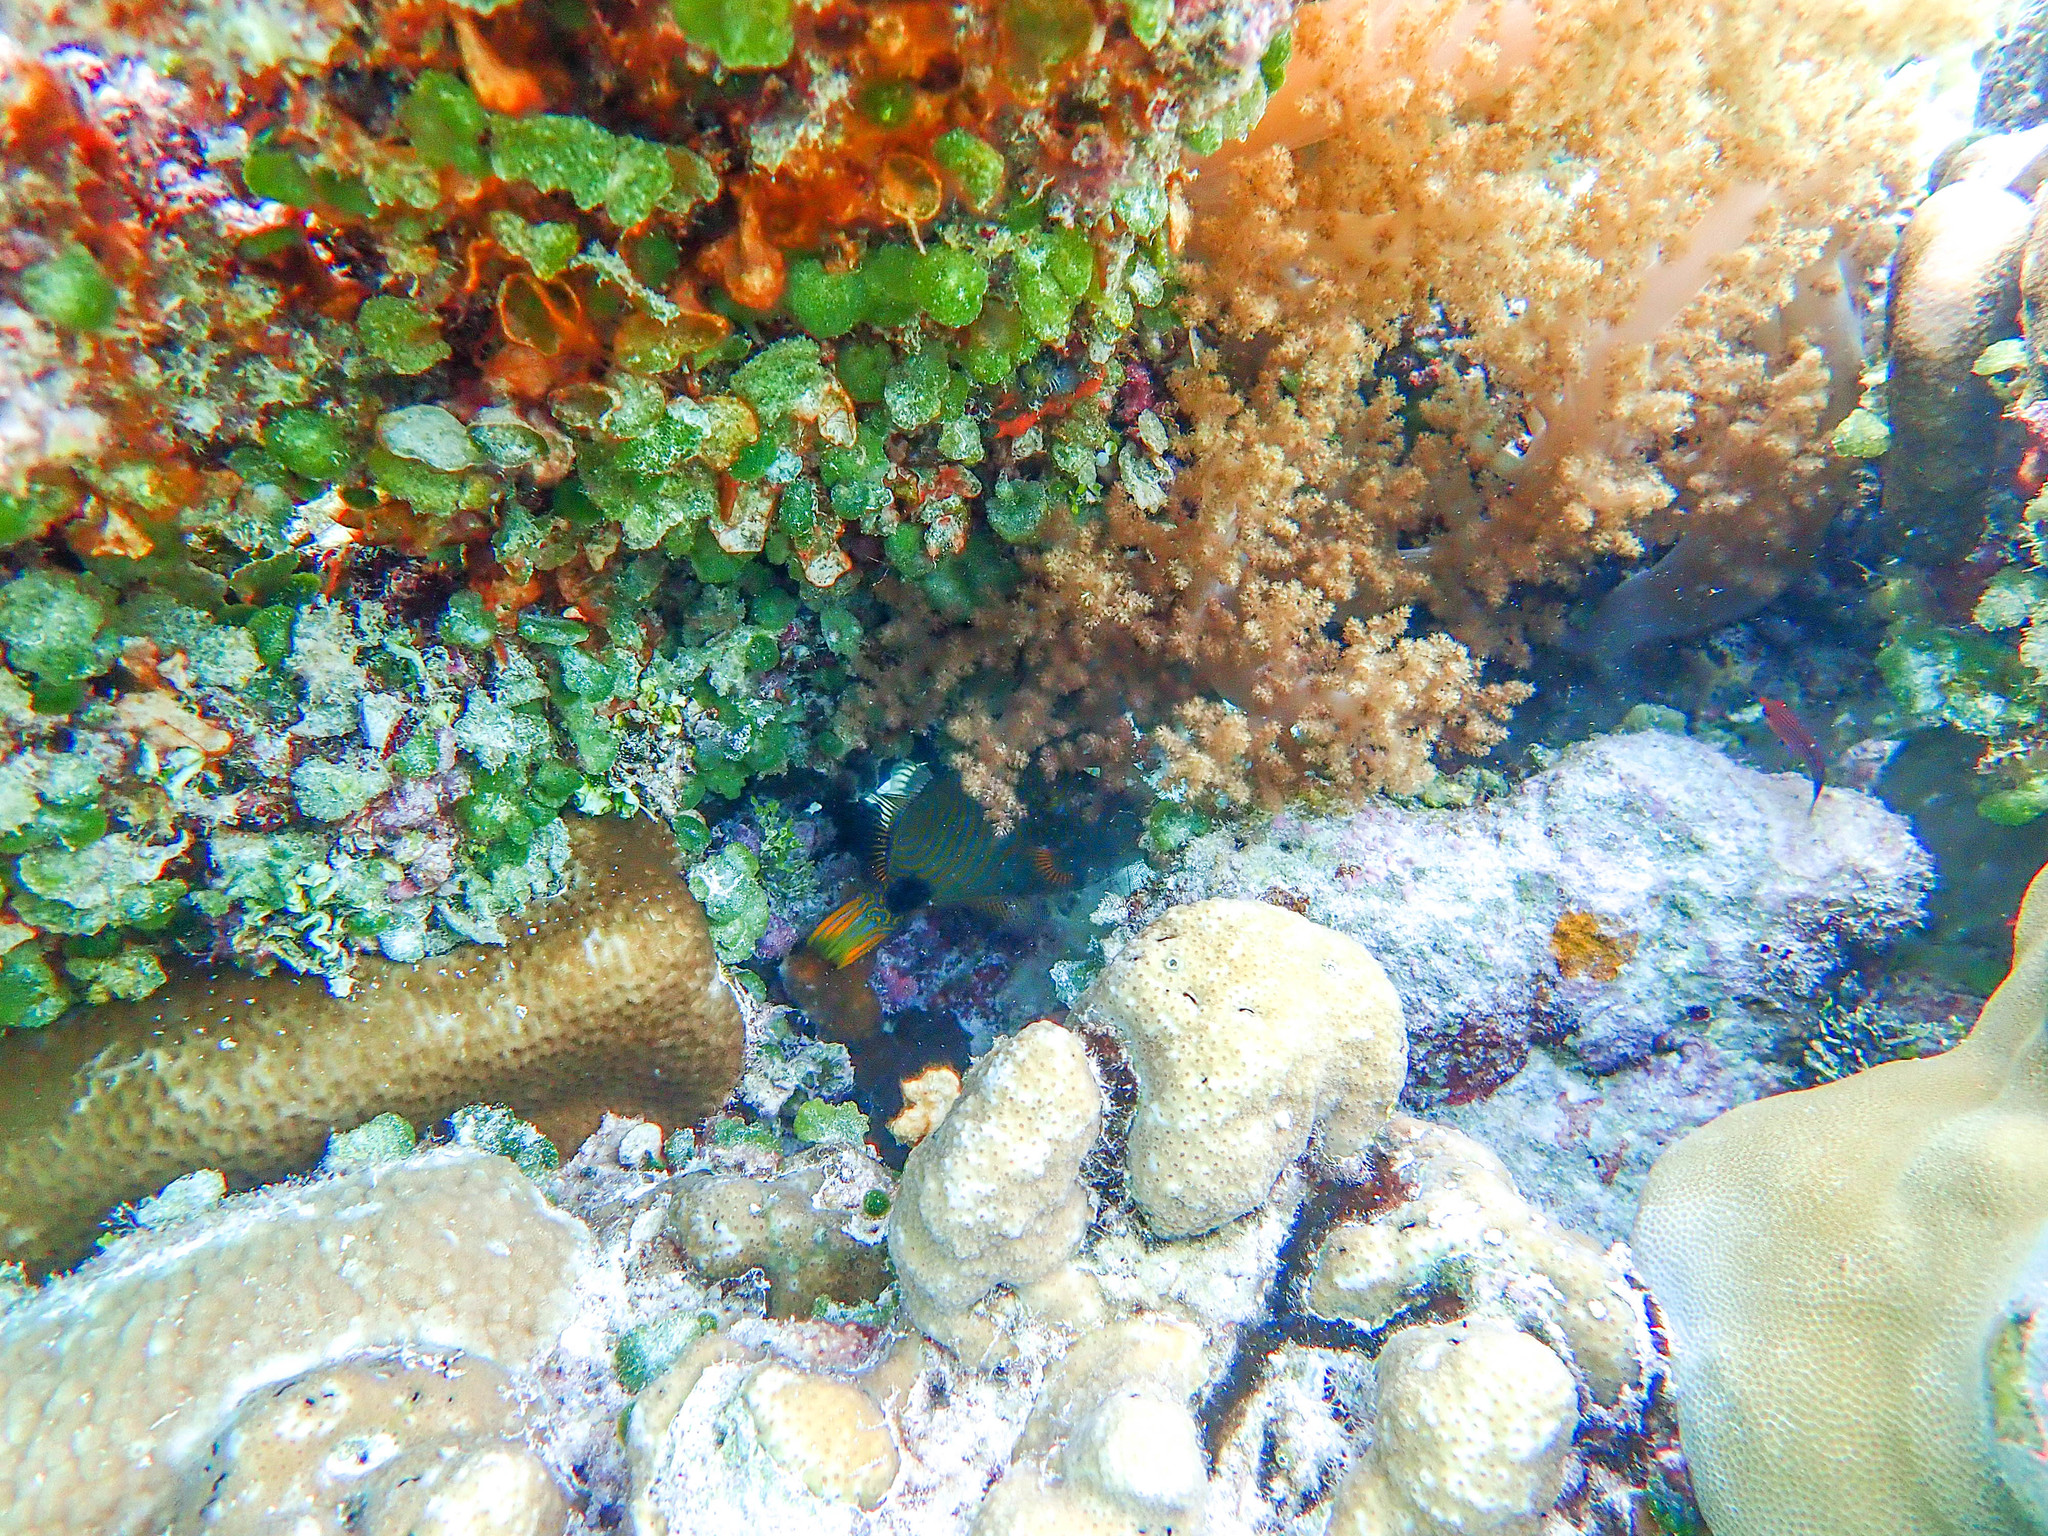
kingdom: Animalia
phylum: Chordata
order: Tetraodontiformes
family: Balistidae
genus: Balistapus
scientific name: Balistapus undulatus
